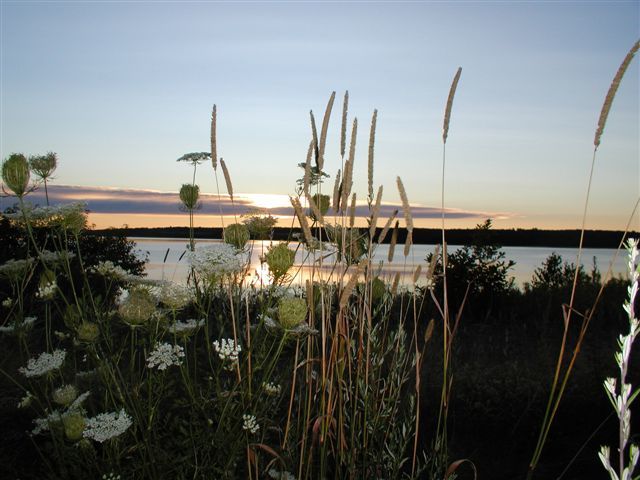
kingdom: Plantae
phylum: Tracheophyta
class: Magnoliopsida
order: Apiales
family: Apiaceae
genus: Daucus
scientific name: Daucus carota
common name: Wild carrot
